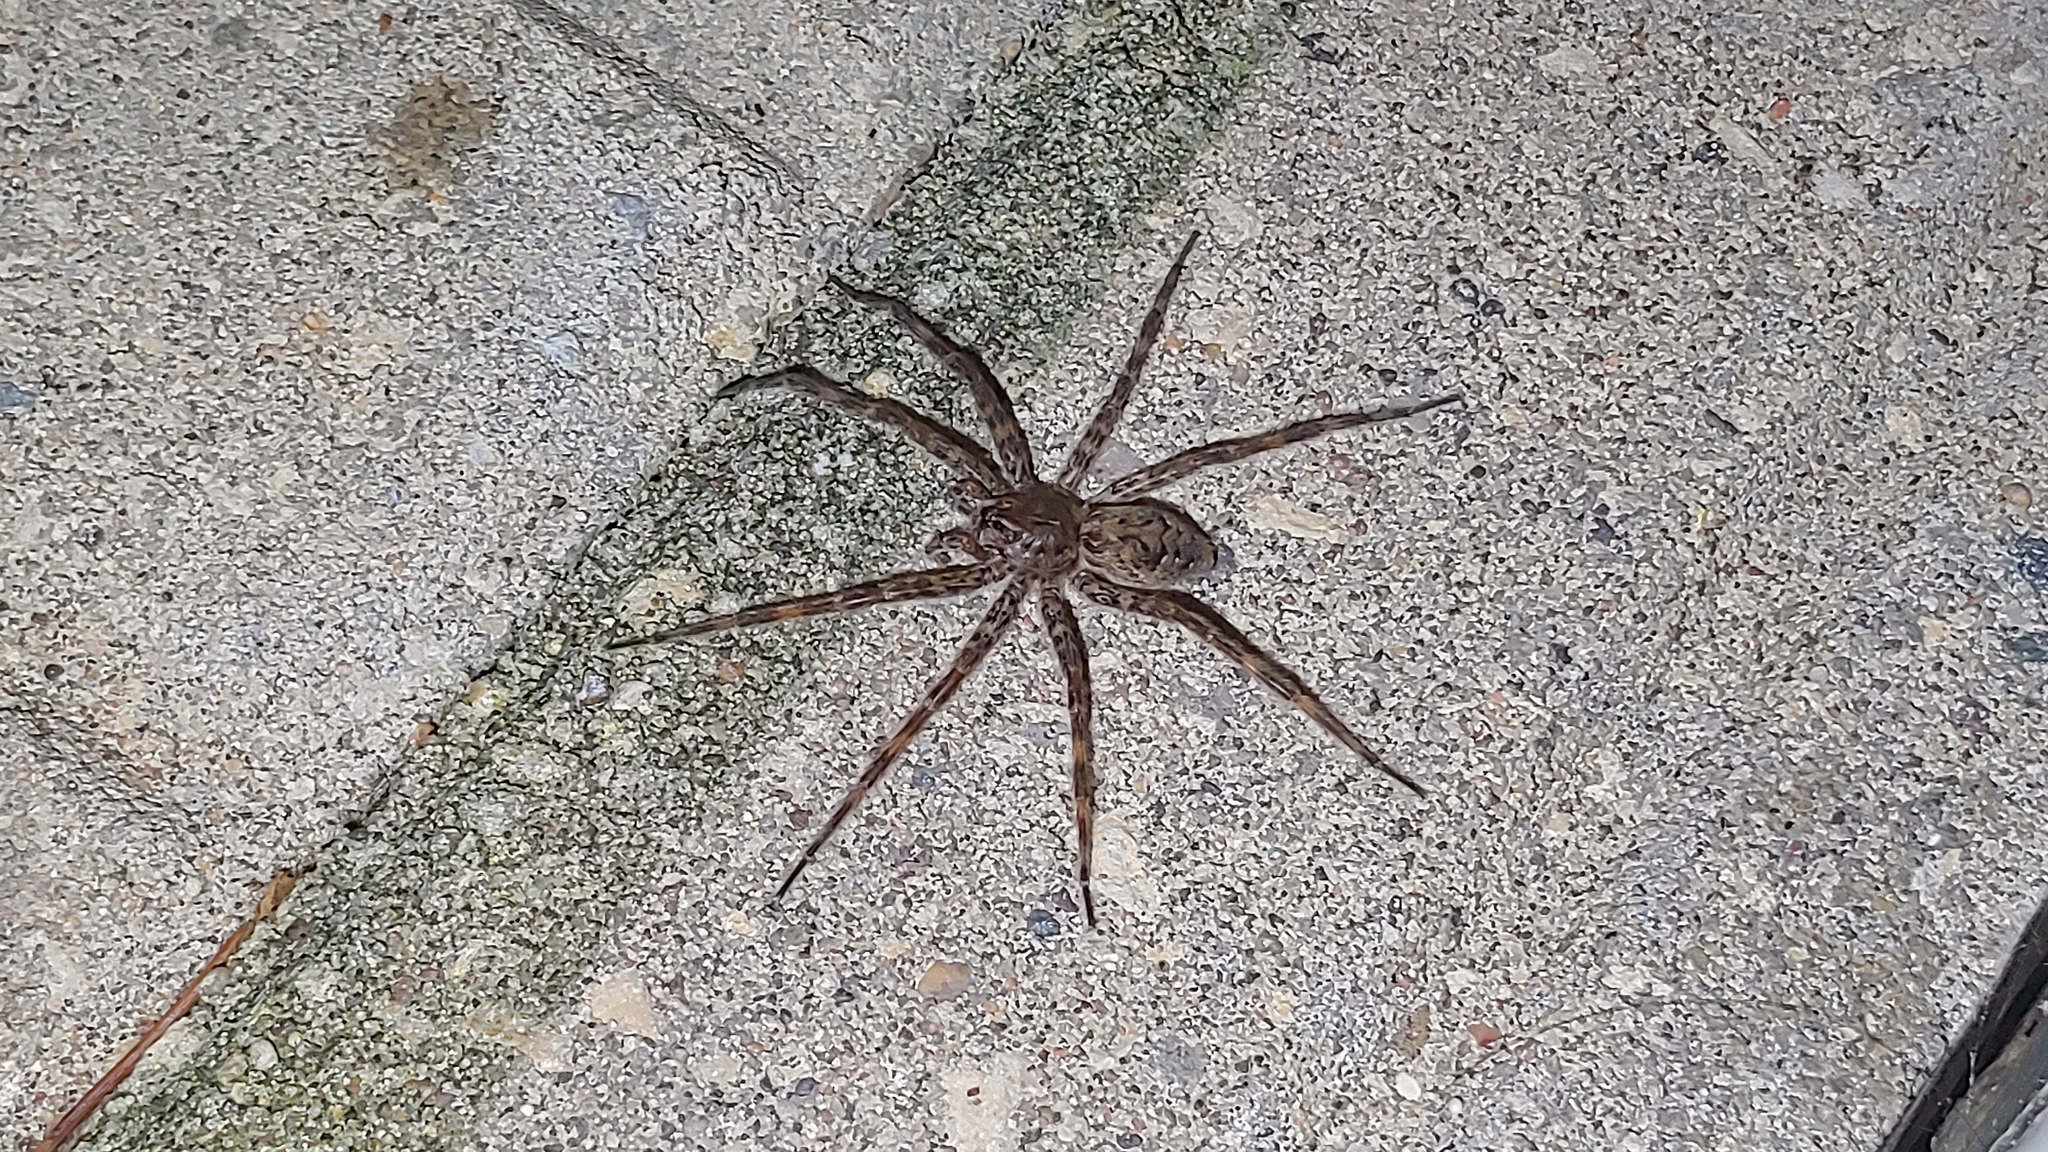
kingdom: Animalia
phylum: Arthropoda
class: Arachnida
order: Araneae
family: Pisauridae
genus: Dolomedes
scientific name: Dolomedes tenebrosus
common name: Dark fishing spider
